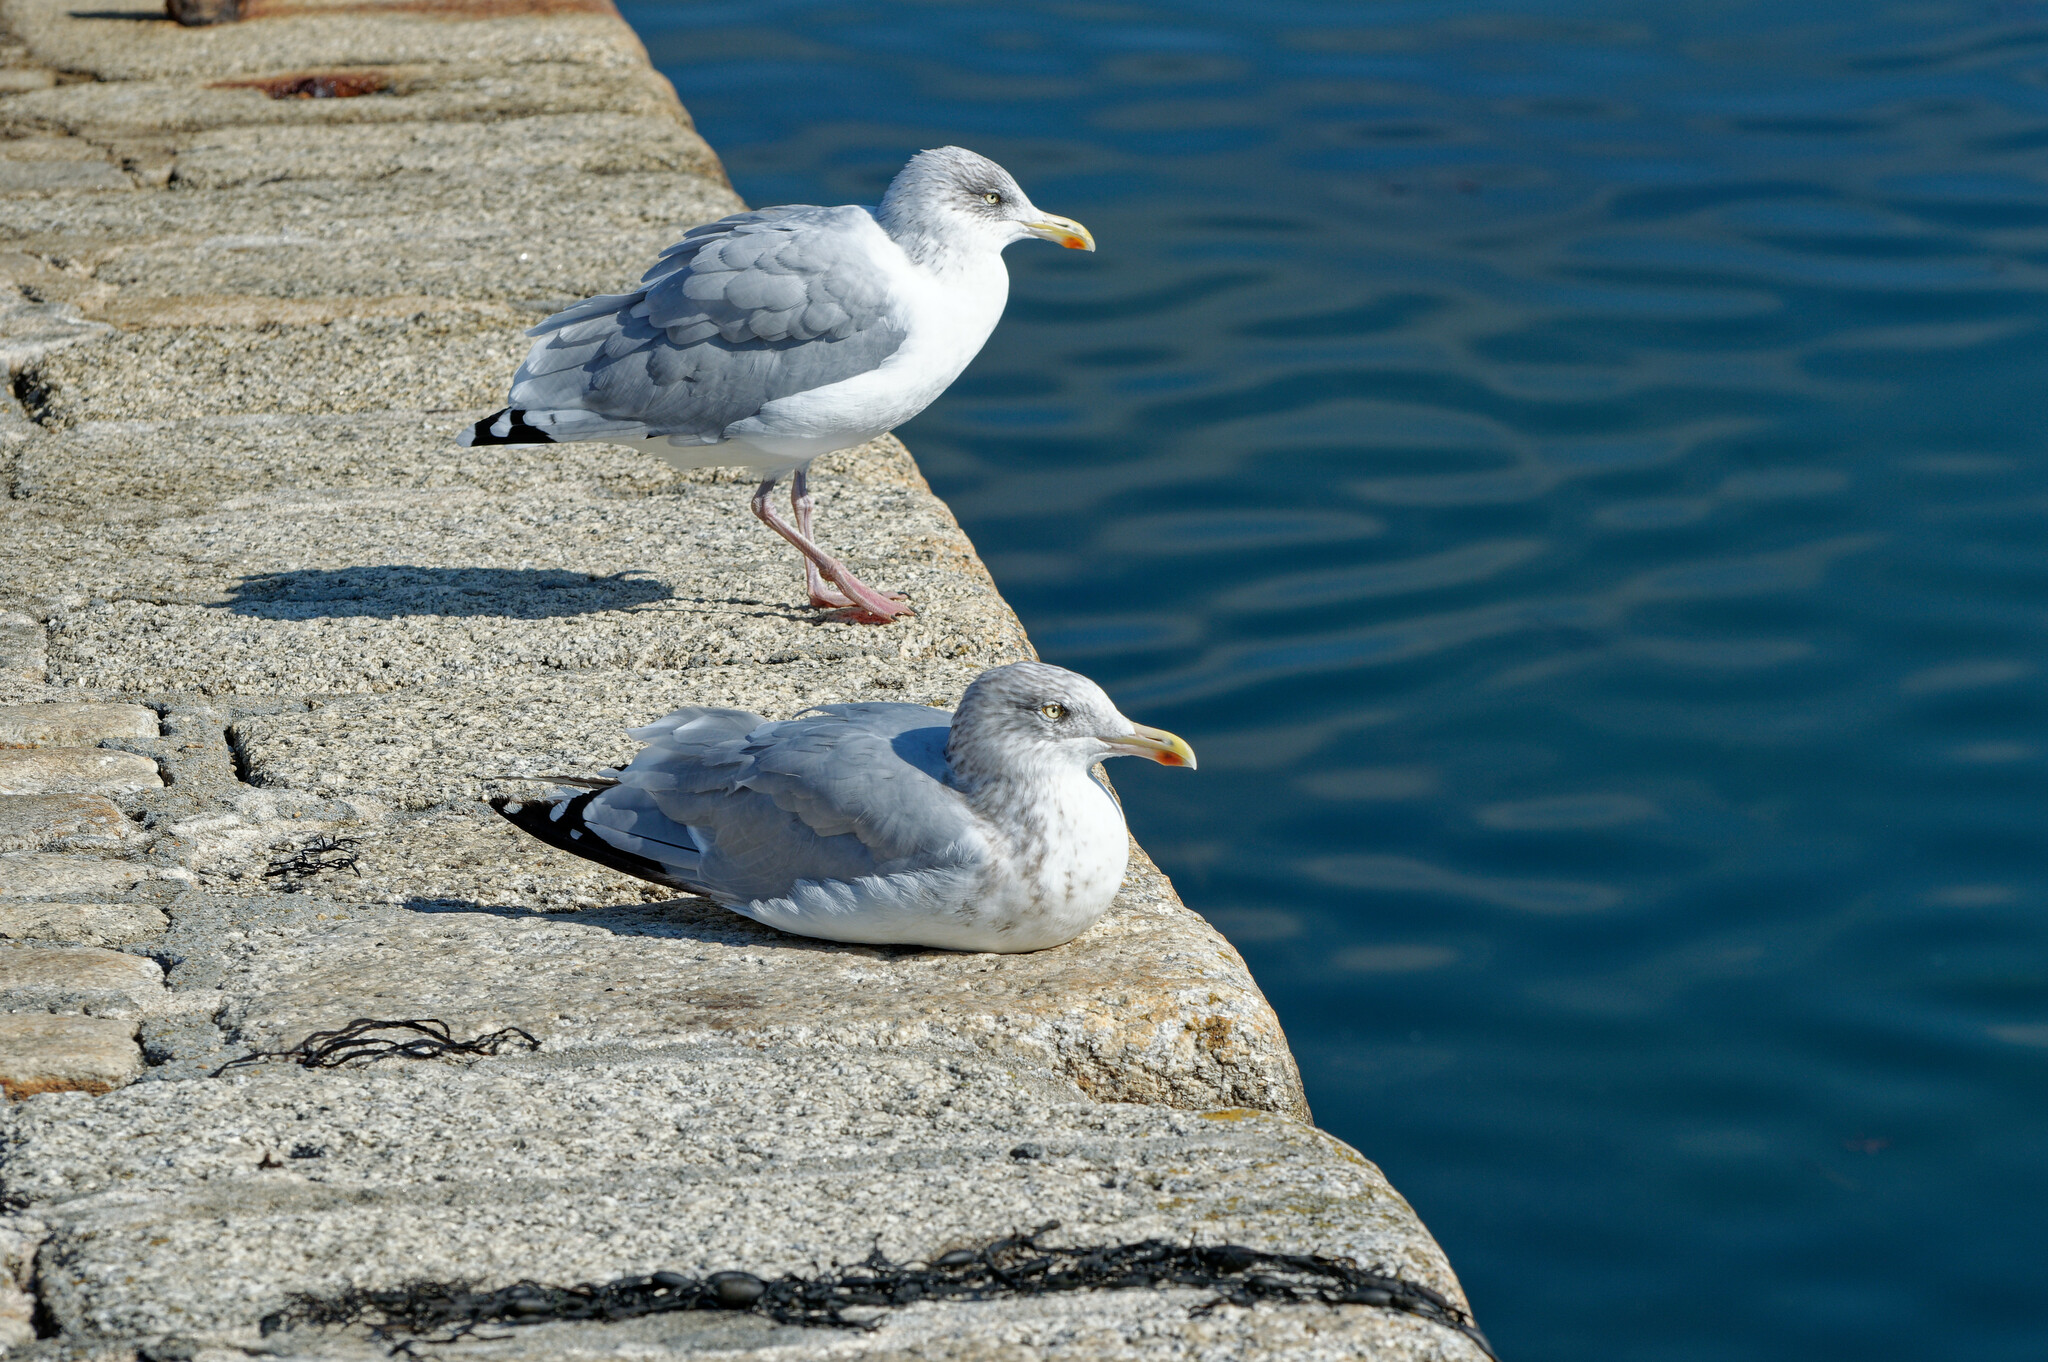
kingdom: Animalia
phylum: Chordata
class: Aves
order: Charadriiformes
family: Laridae
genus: Larus
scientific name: Larus argentatus
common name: Herring gull
